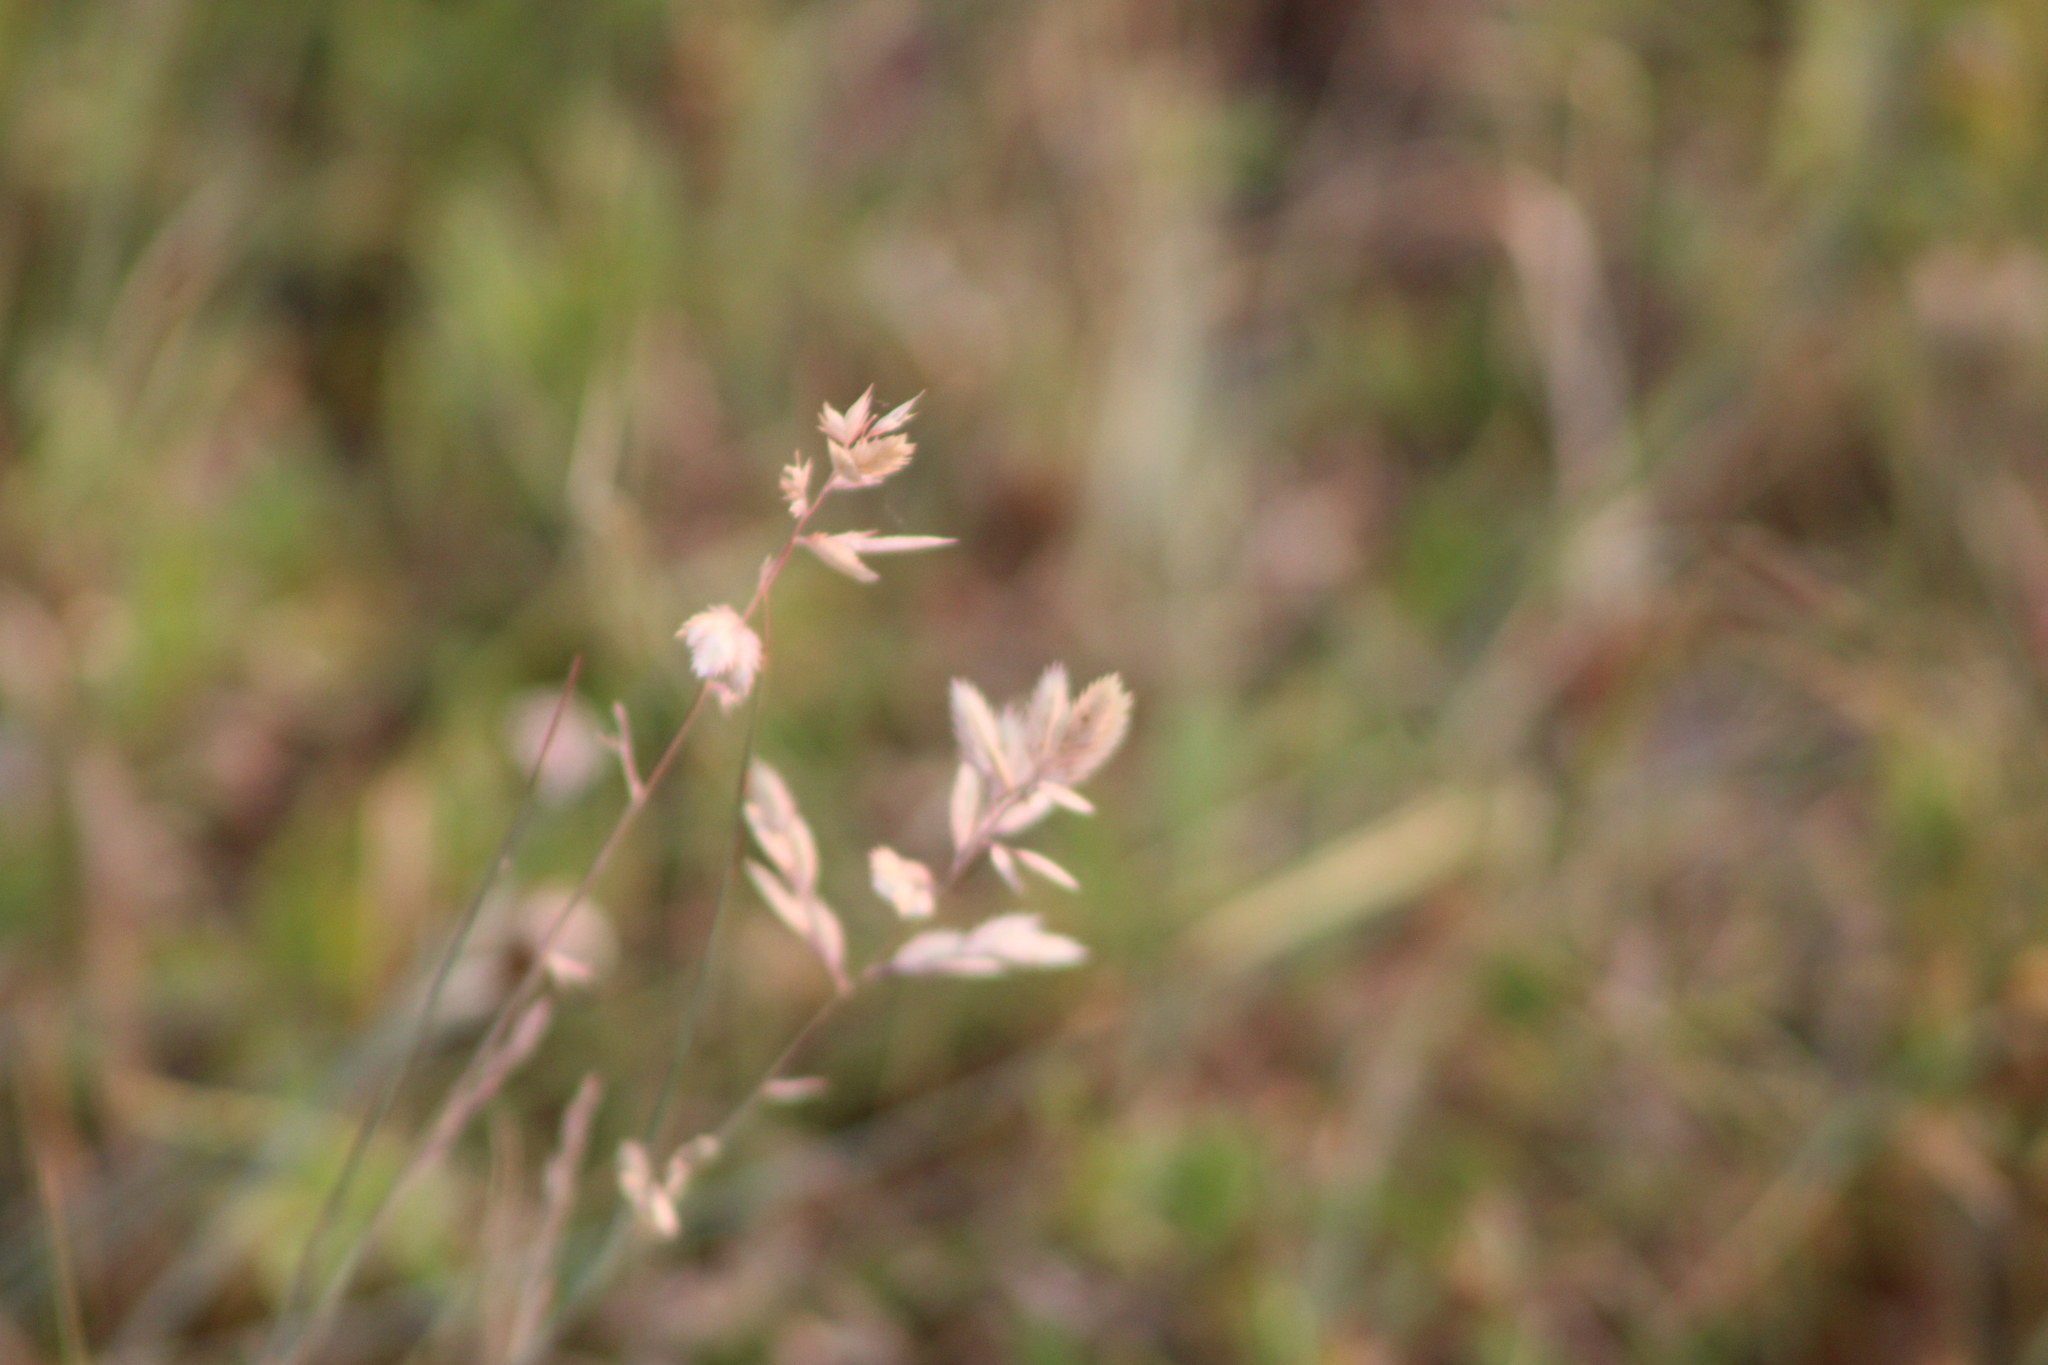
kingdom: Plantae
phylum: Tracheophyta
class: Liliopsida
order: Poales
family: Poaceae
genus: Eragrostis
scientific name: Eragrostis secundiflora
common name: Red love grass
